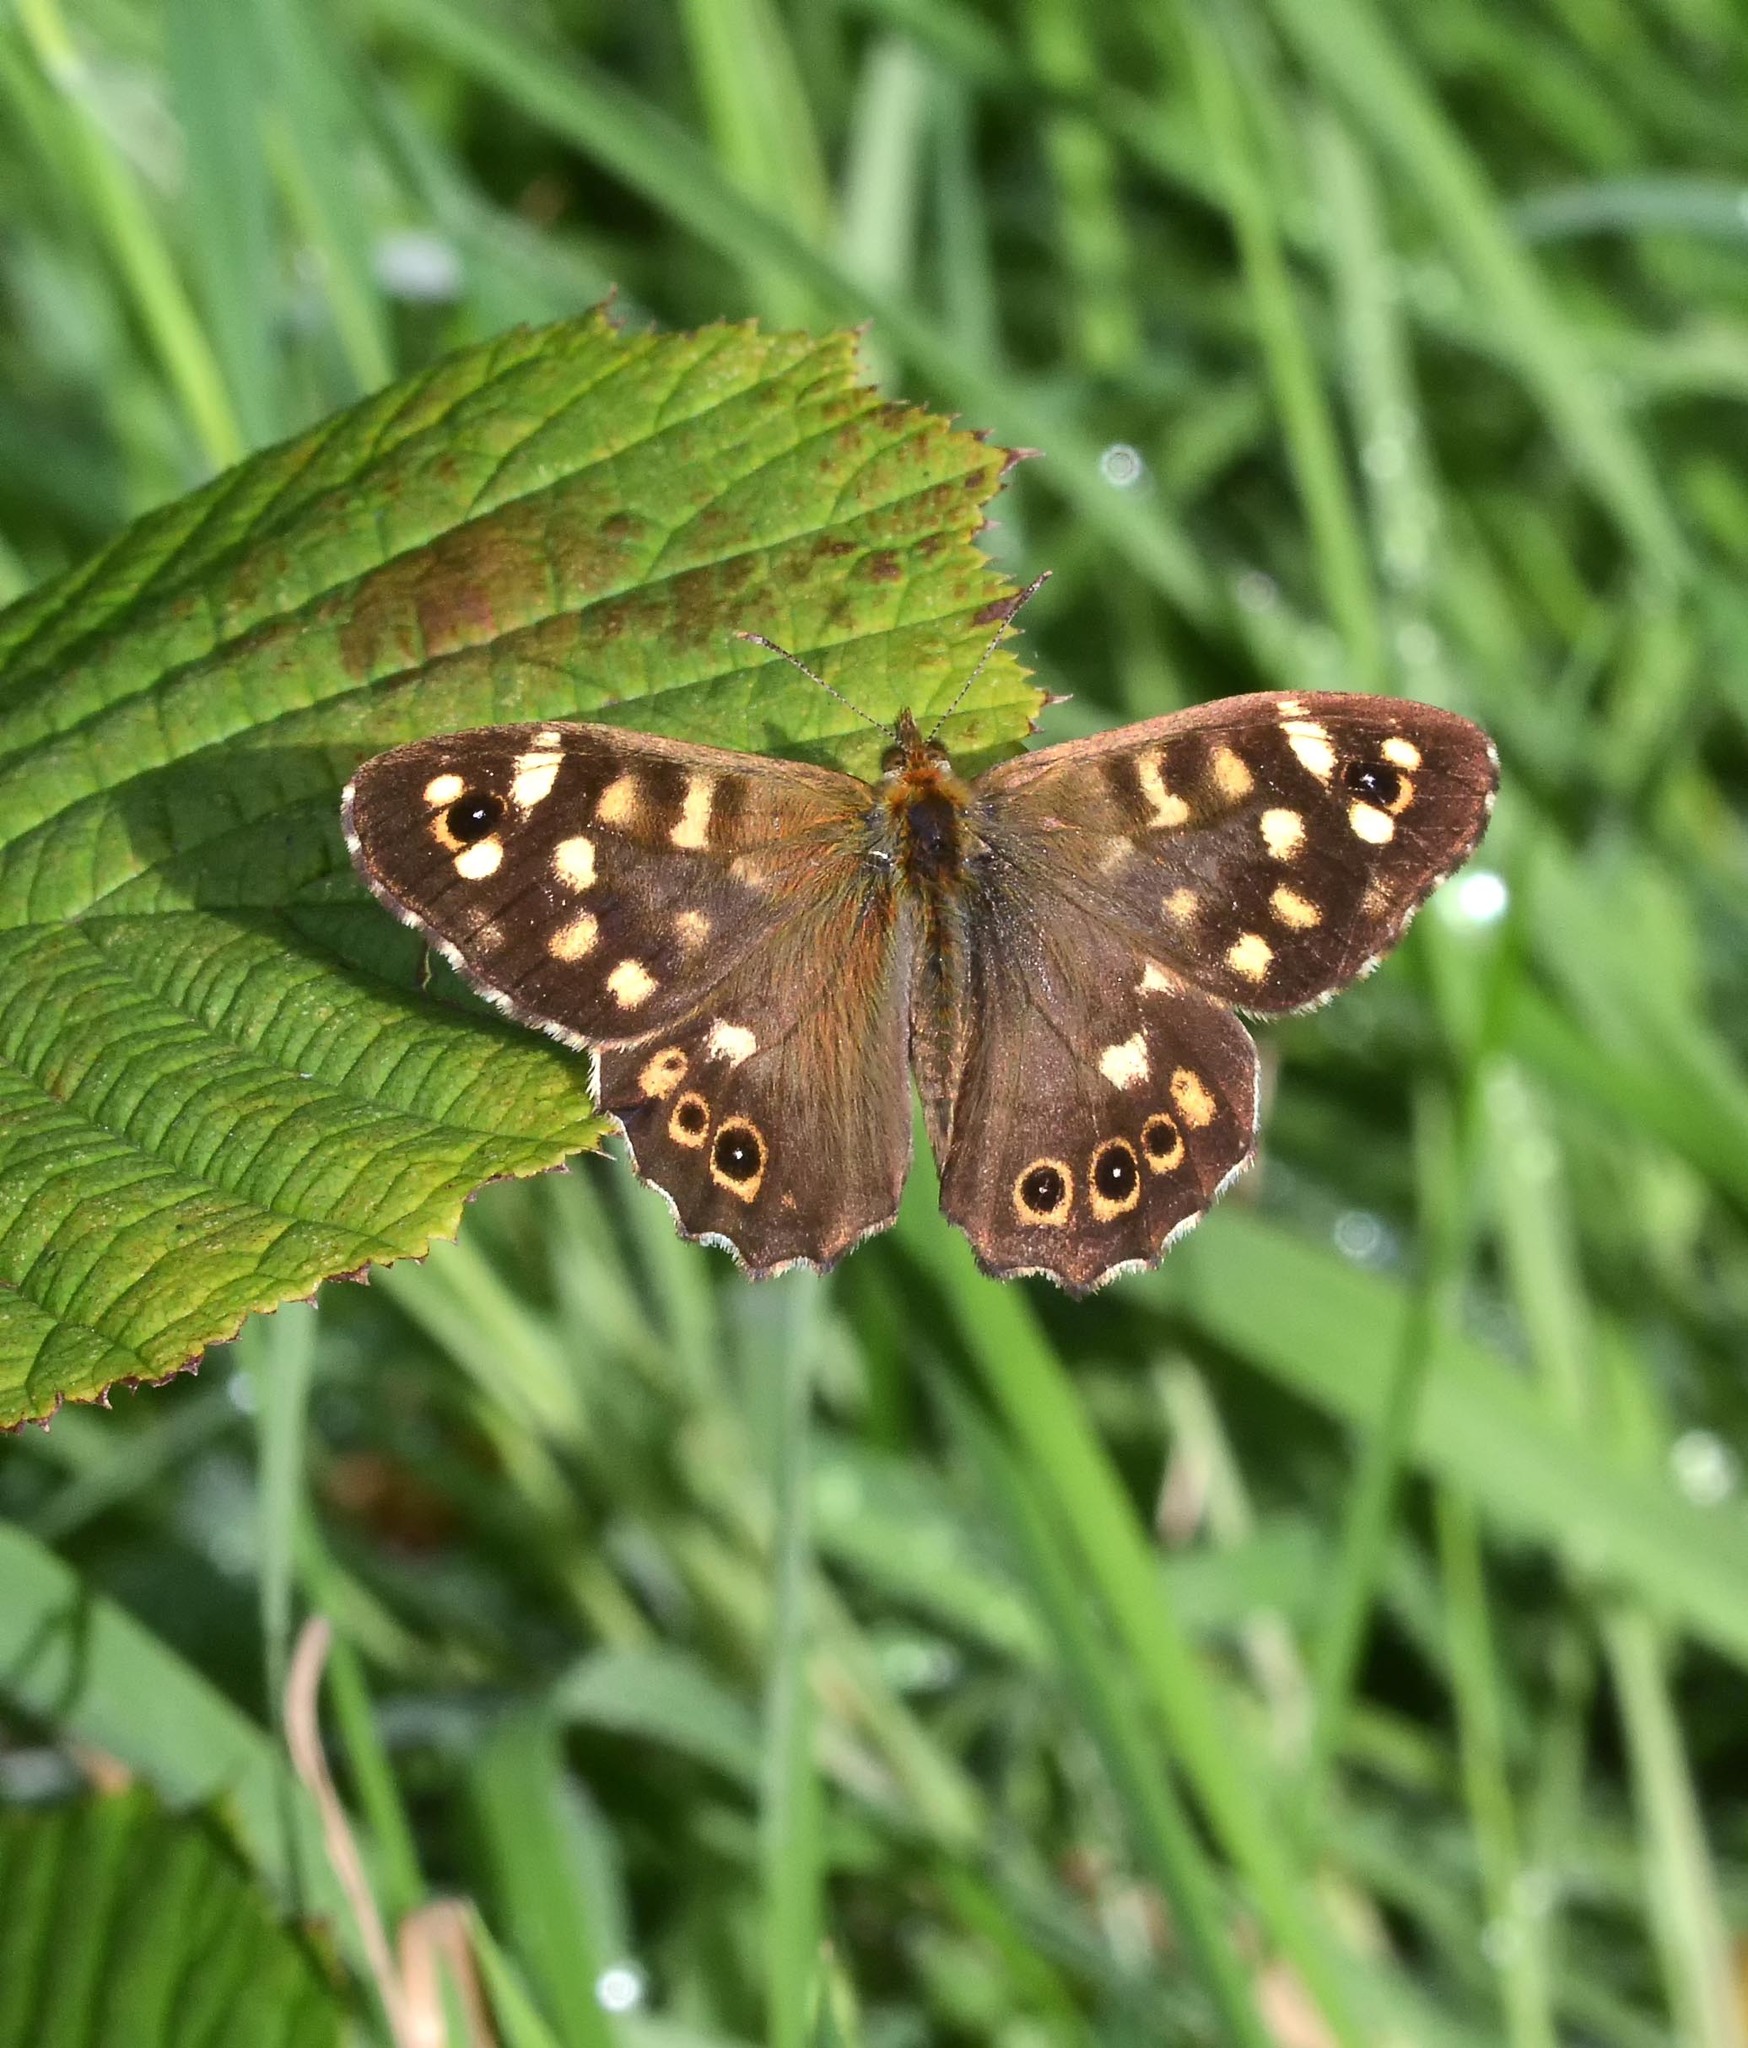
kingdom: Animalia
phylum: Arthropoda
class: Insecta
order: Lepidoptera
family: Nymphalidae
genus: Pararge
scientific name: Pararge aegeria
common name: Speckled wood
